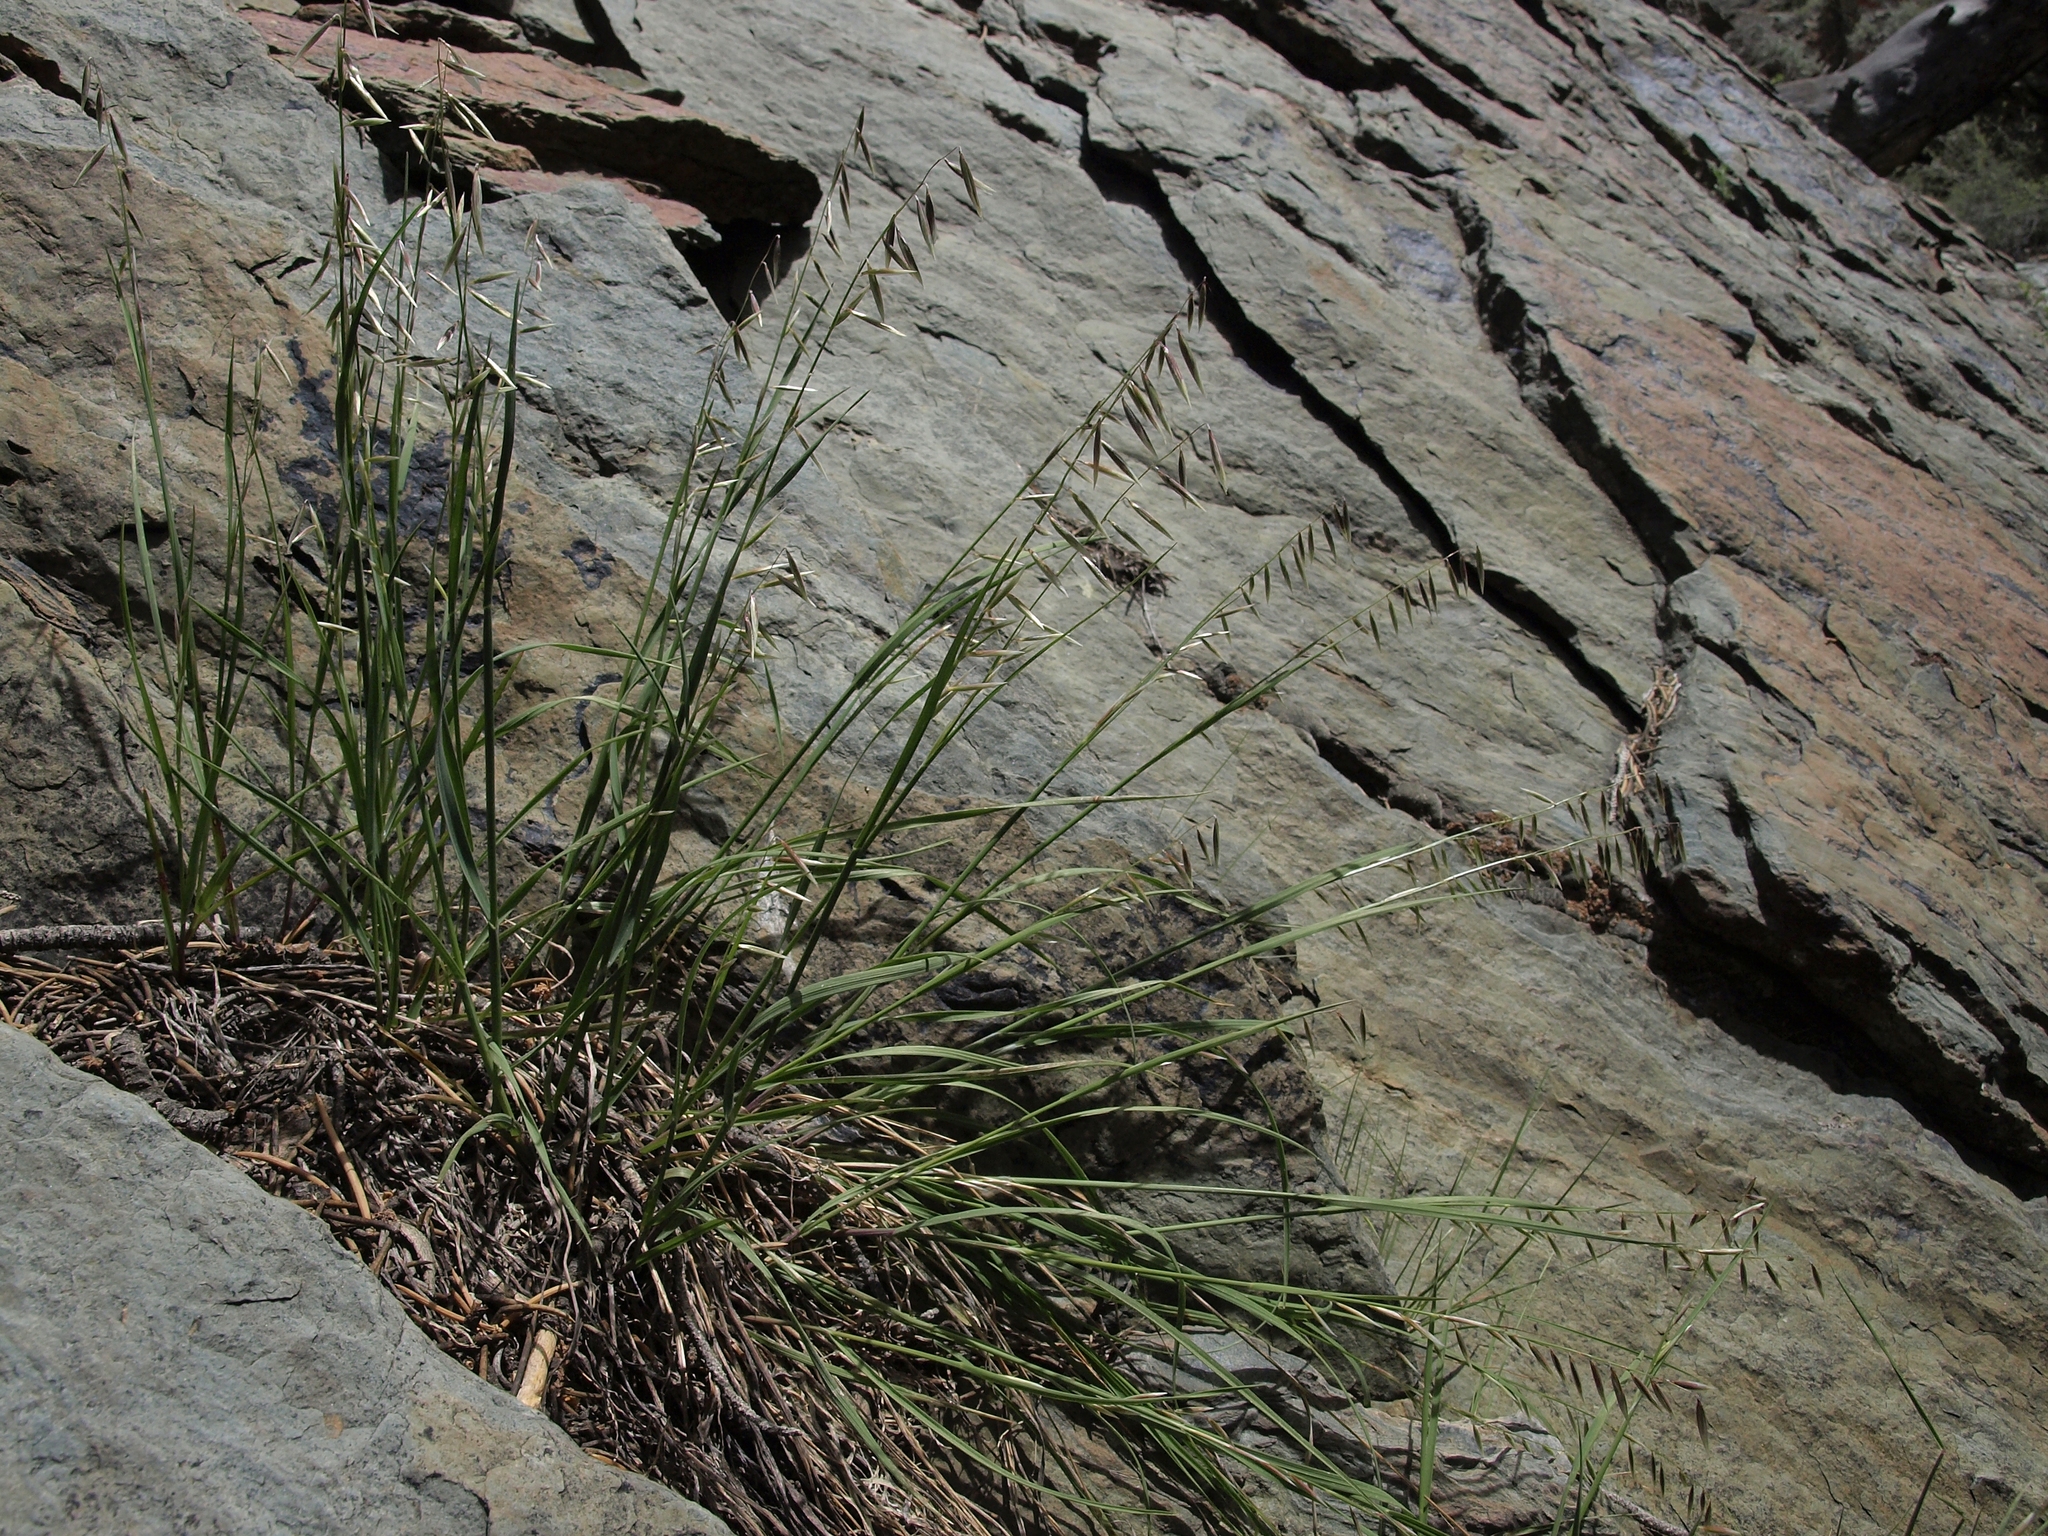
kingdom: Plantae
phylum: Tracheophyta
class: Liliopsida
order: Poales
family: Poaceae
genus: Melica
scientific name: Melica stricta
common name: Rock melic
